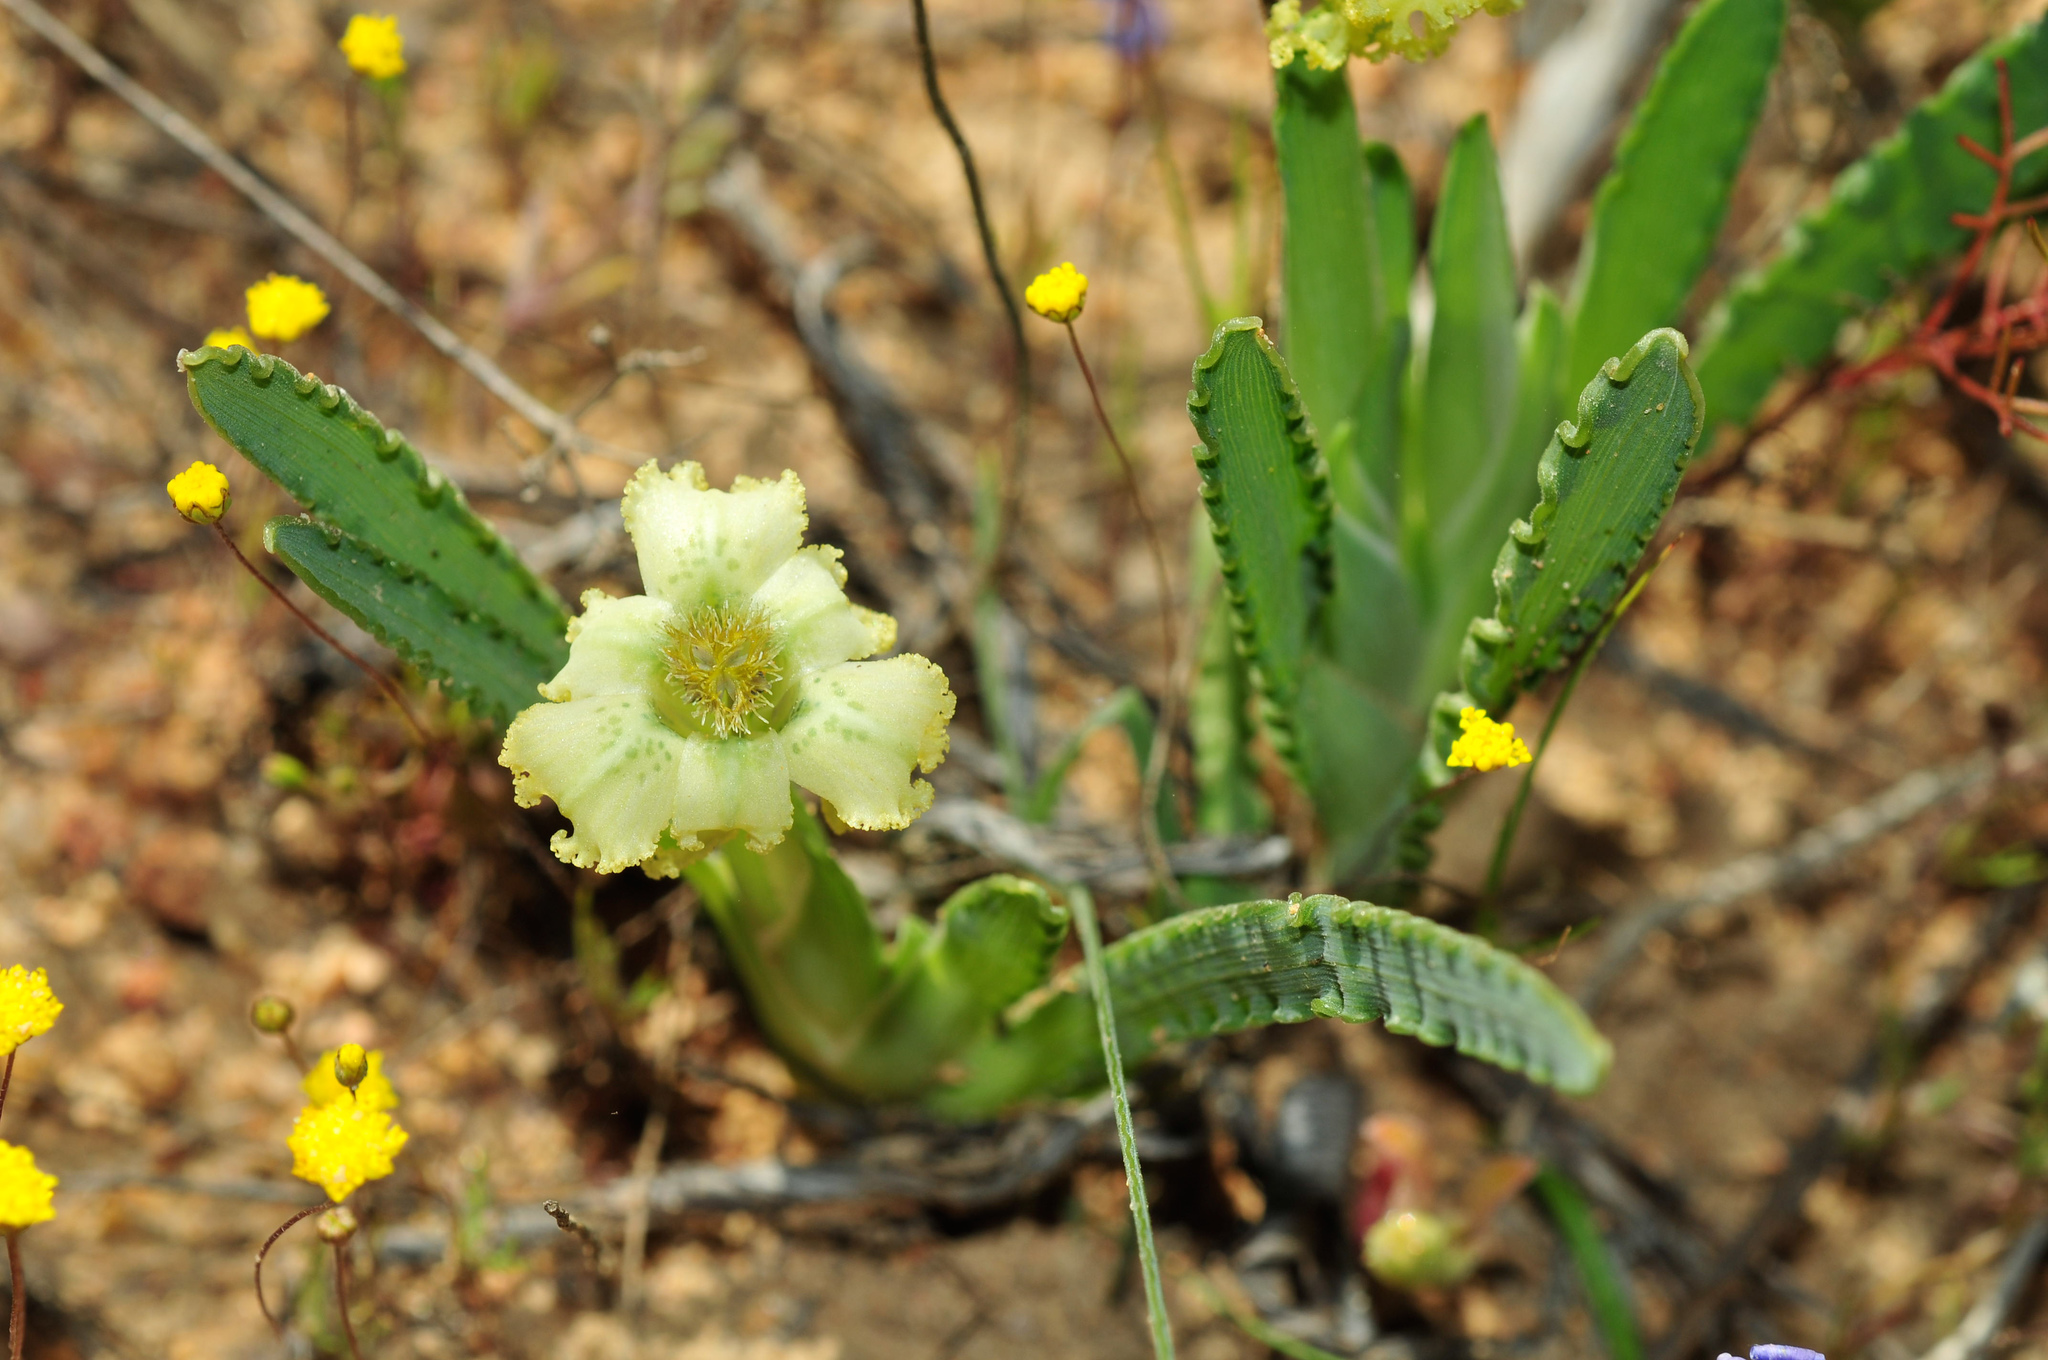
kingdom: Plantae
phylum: Tracheophyta
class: Liliopsida
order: Asparagales
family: Iridaceae
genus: Ferraria
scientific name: Ferraria macrochlamys
